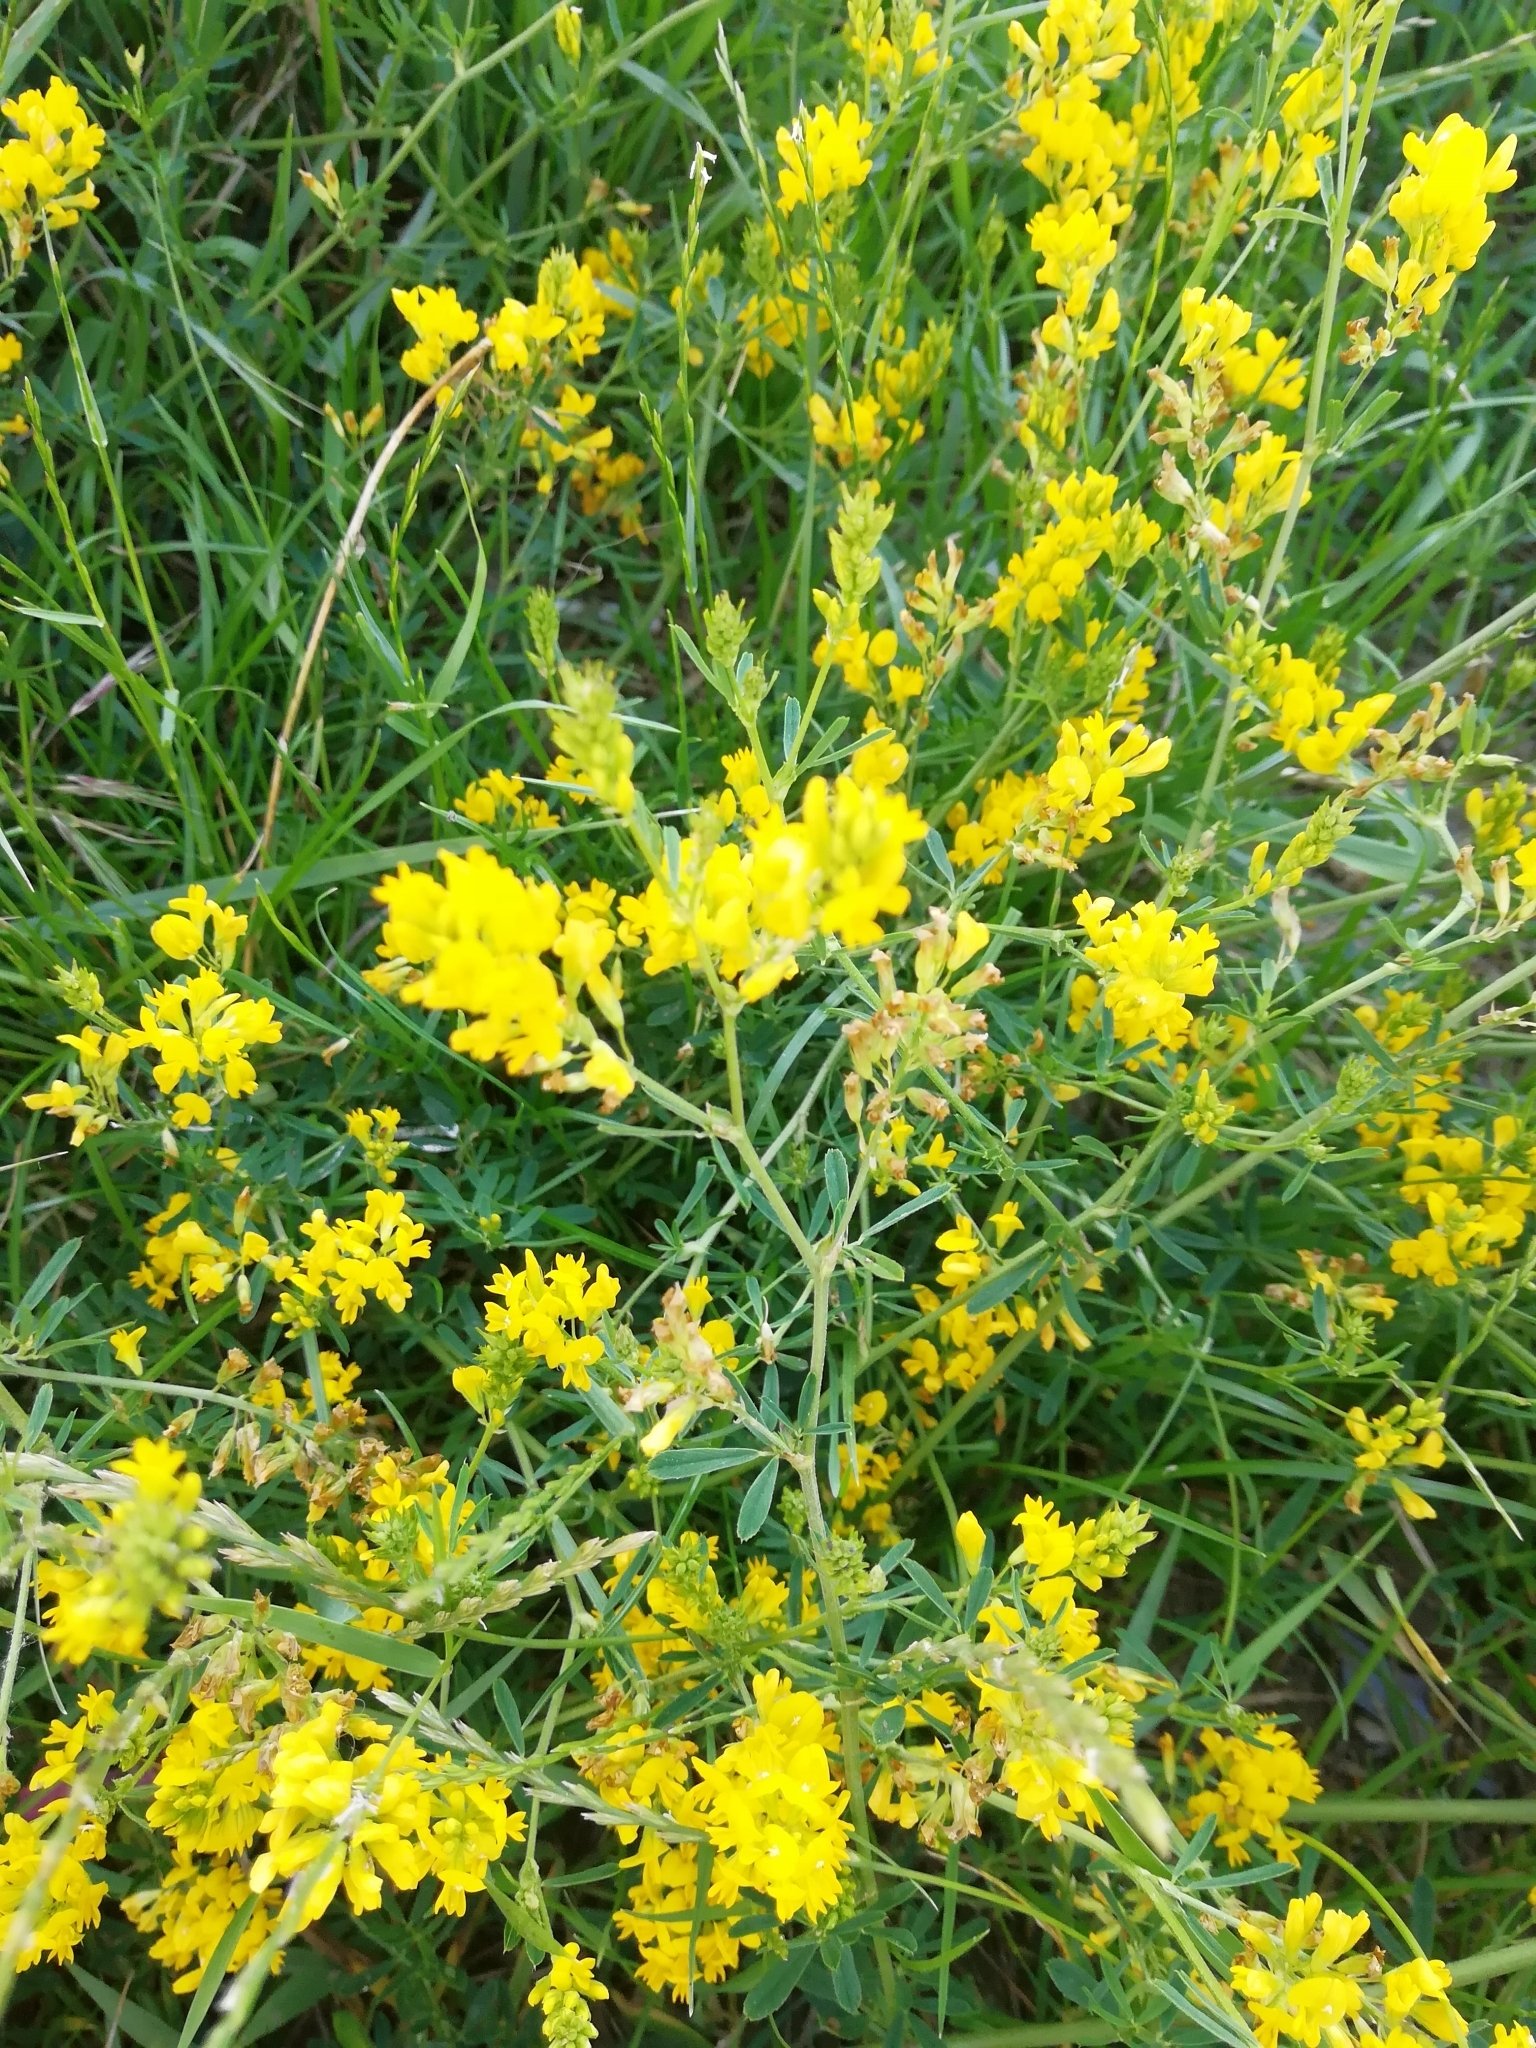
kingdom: Plantae
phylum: Tracheophyta
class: Magnoliopsida
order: Fabales
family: Fabaceae
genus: Medicago
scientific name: Medicago falcata
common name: Sickle medick
